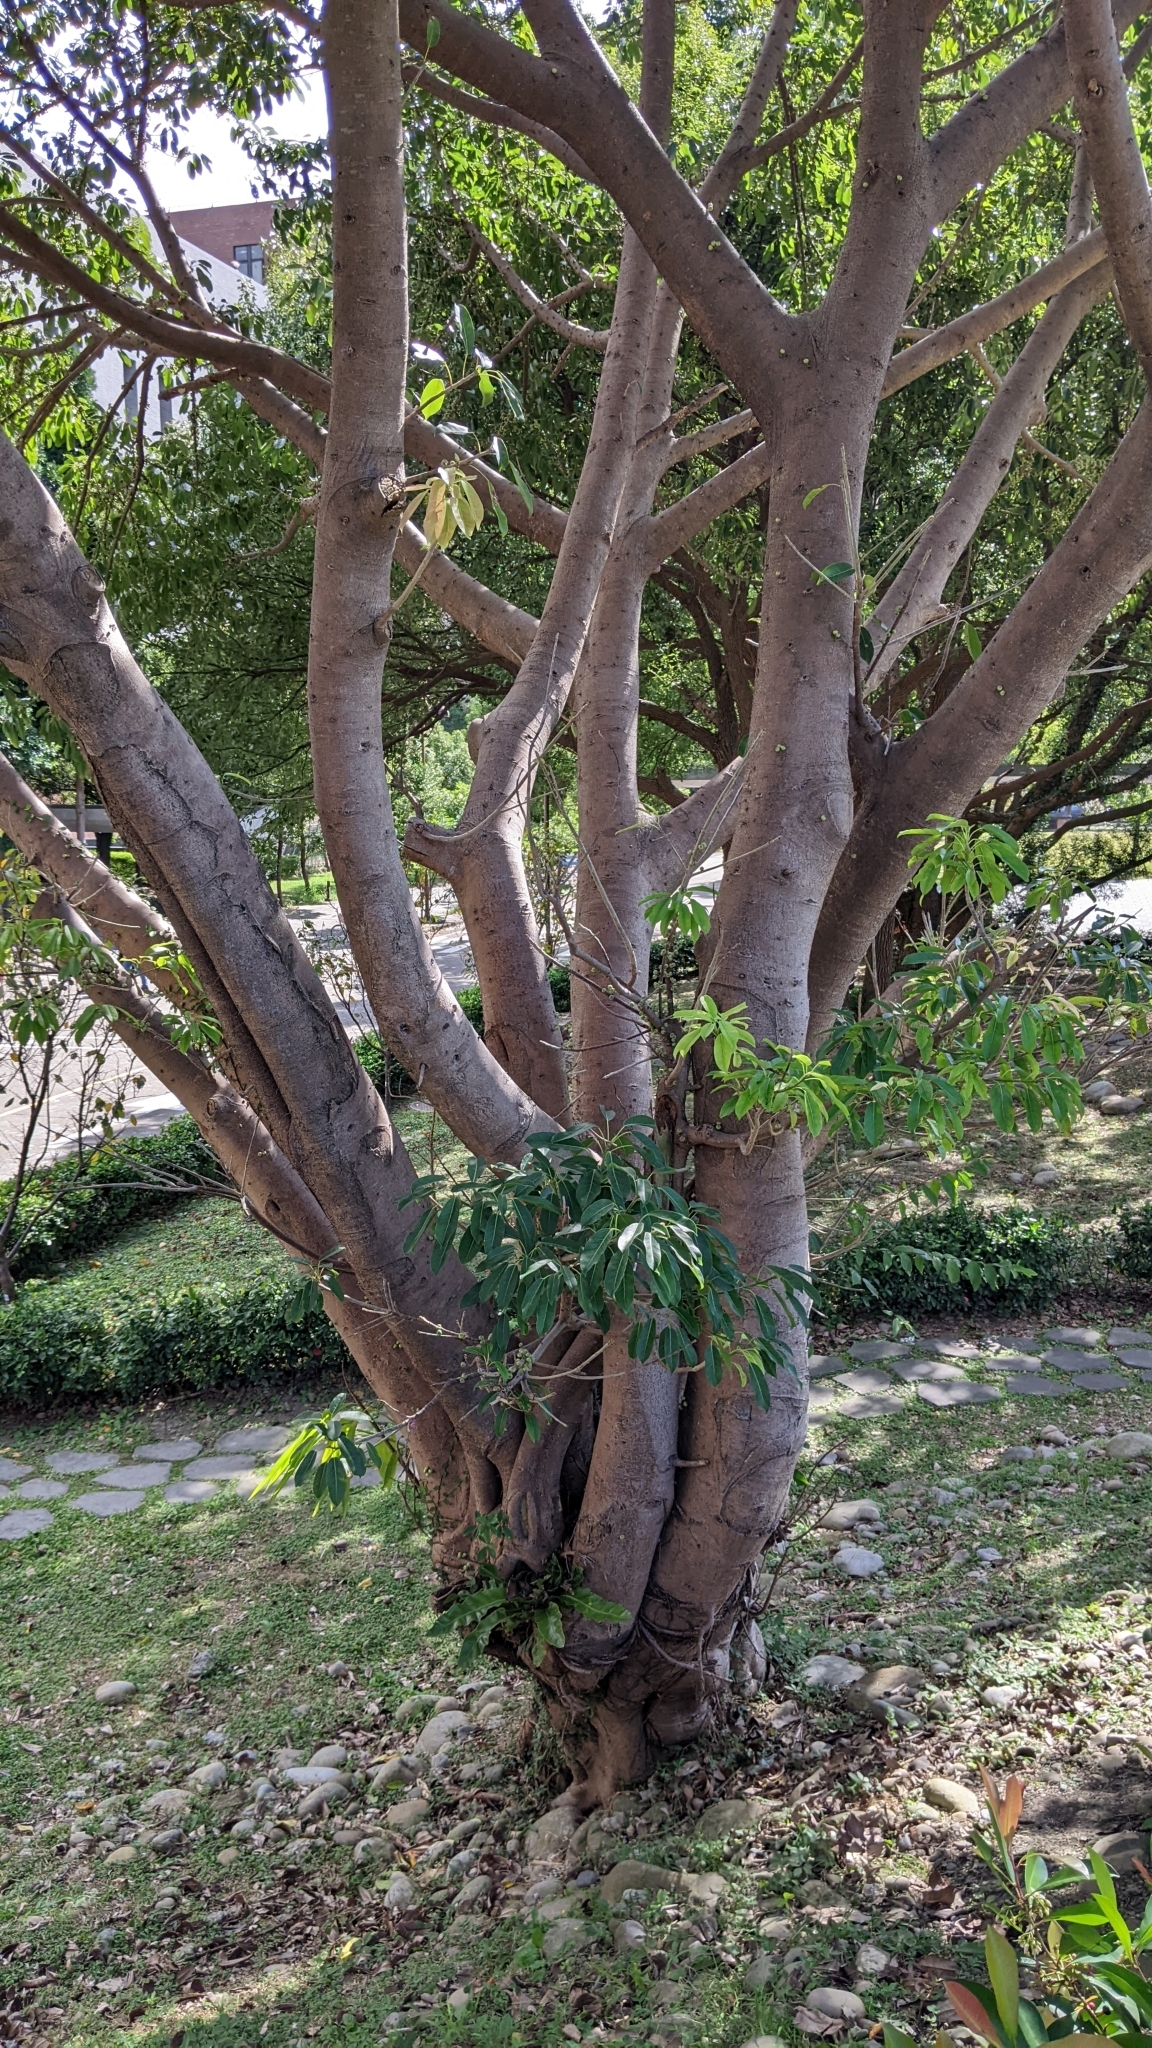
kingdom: Plantae
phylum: Tracheophyta
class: Magnoliopsida
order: Rosales
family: Moraceae
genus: Ficus
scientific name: Ficus subpisocarpa
